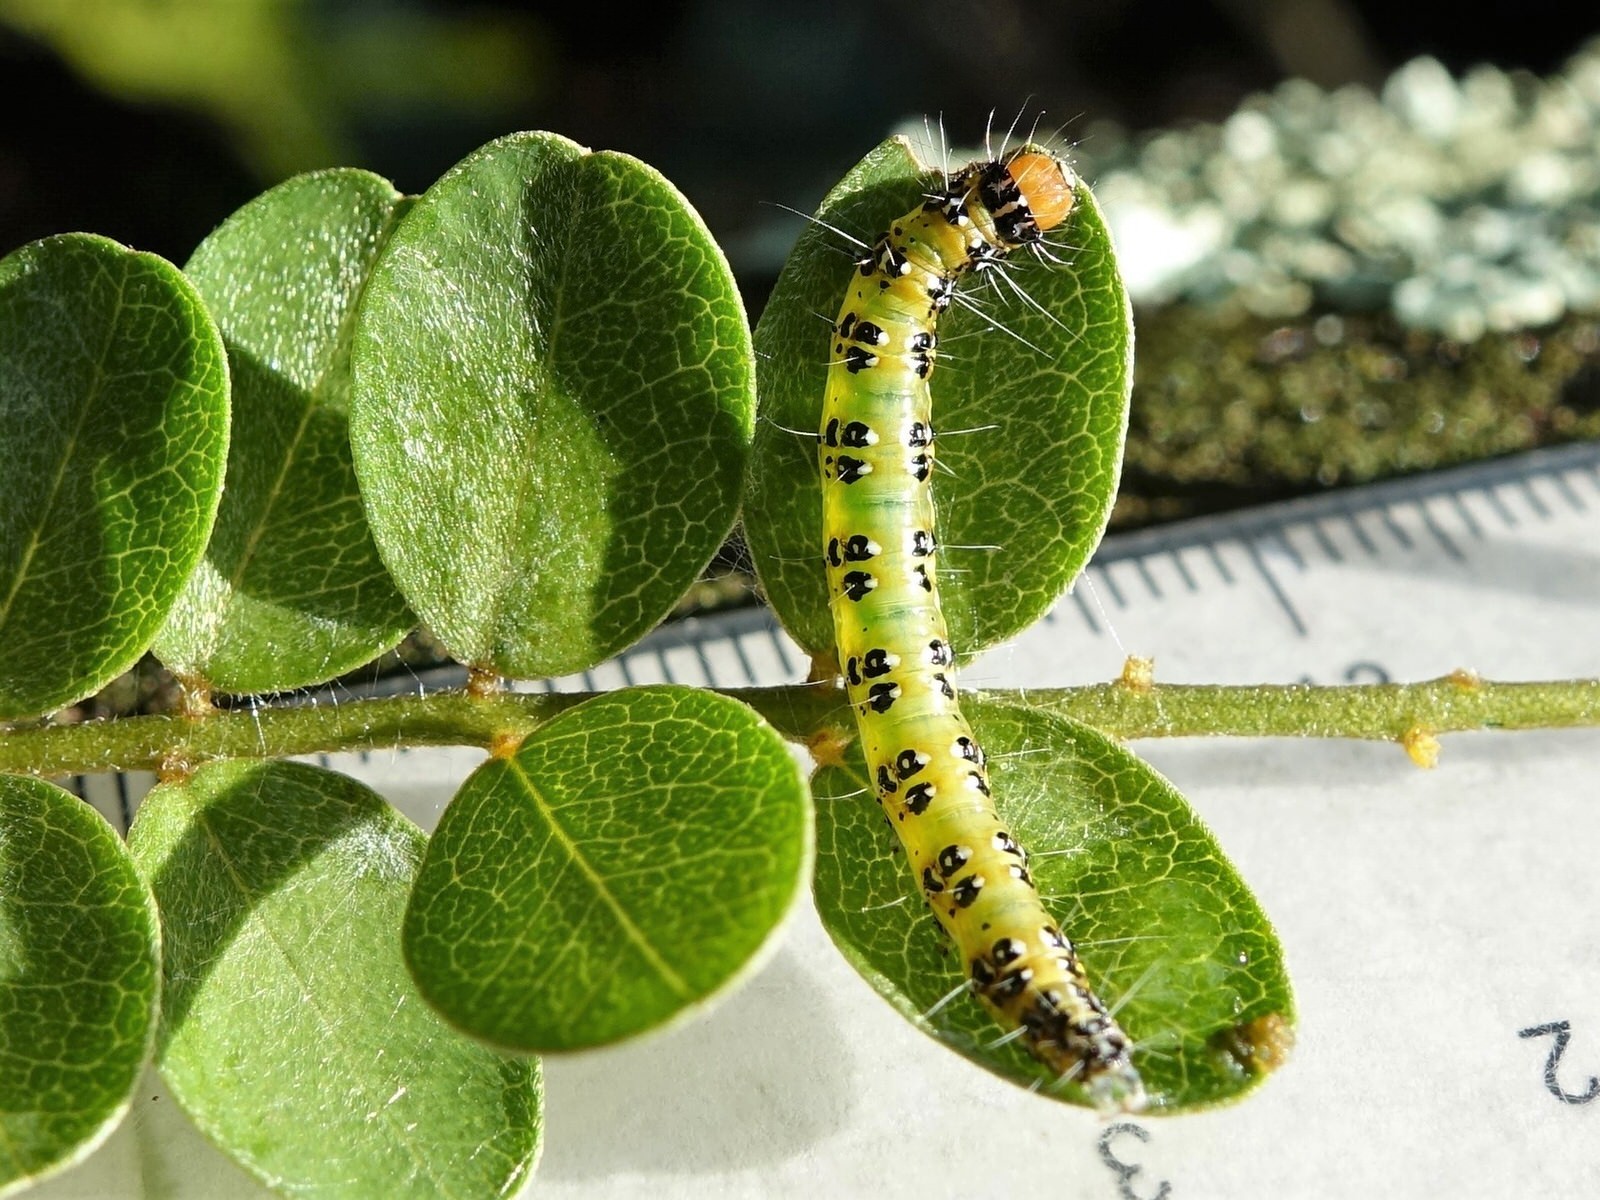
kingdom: Animalia
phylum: Arthropoda
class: Insecta
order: Lepidoptera
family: Crambidae
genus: Uresiphita
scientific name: Uresiphita
